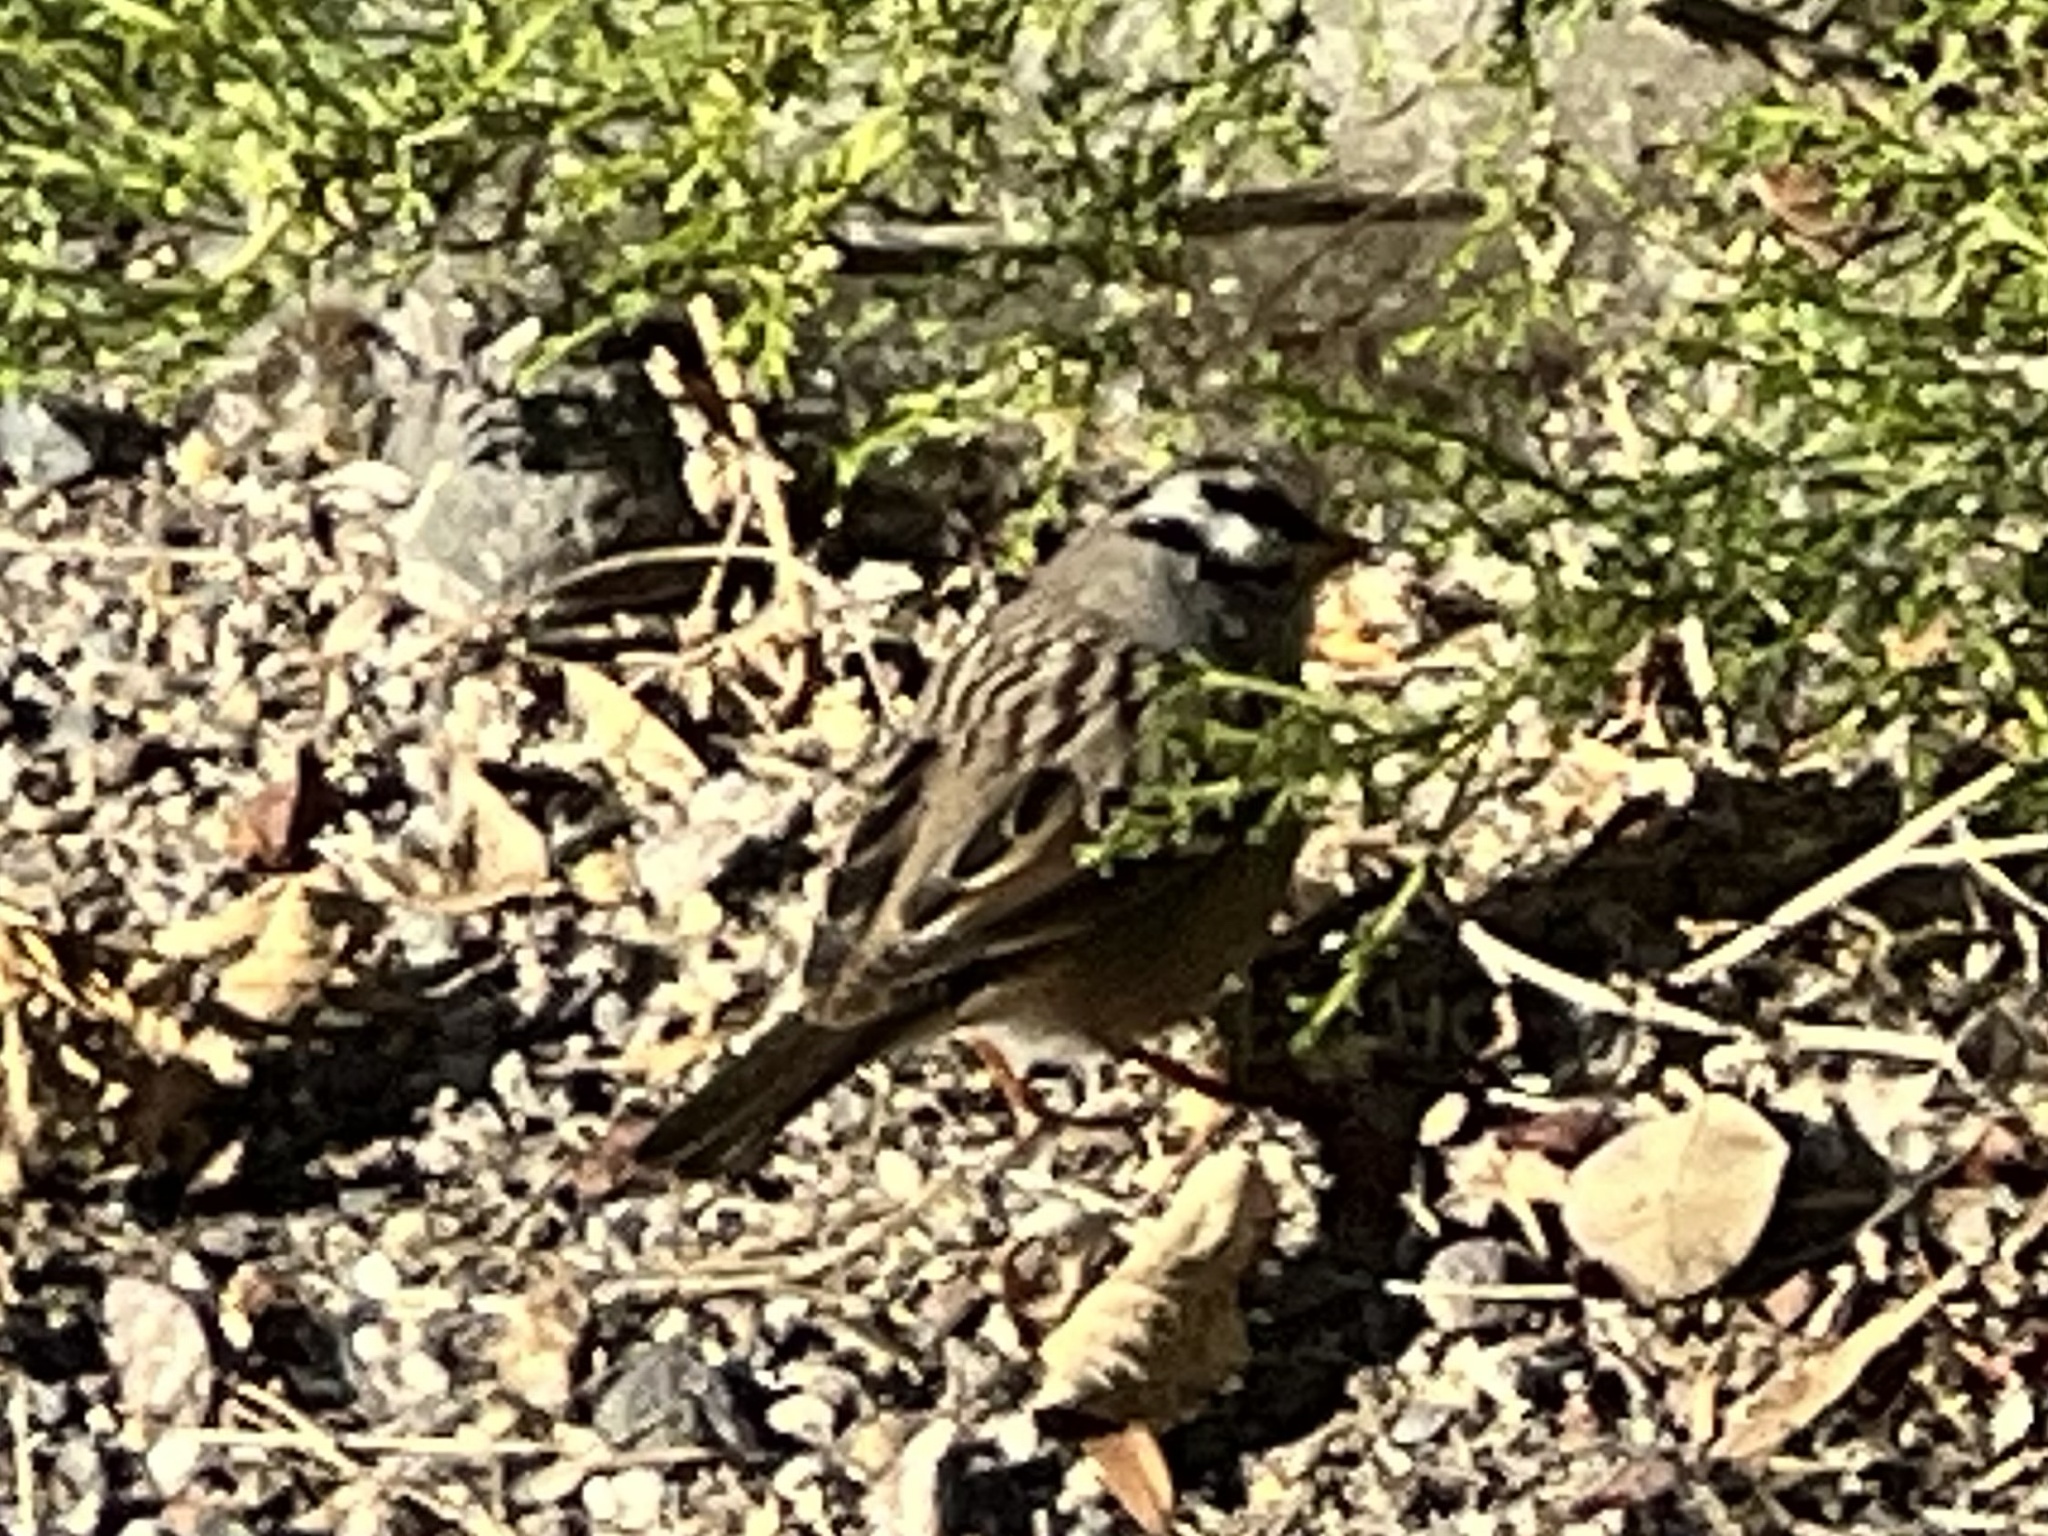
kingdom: Animalia
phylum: Chordata
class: Aves
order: Passeriformes
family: Passerellidae
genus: Zonotrichia
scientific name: Zonotrichia leucophrys
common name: White-crowned sparrow
